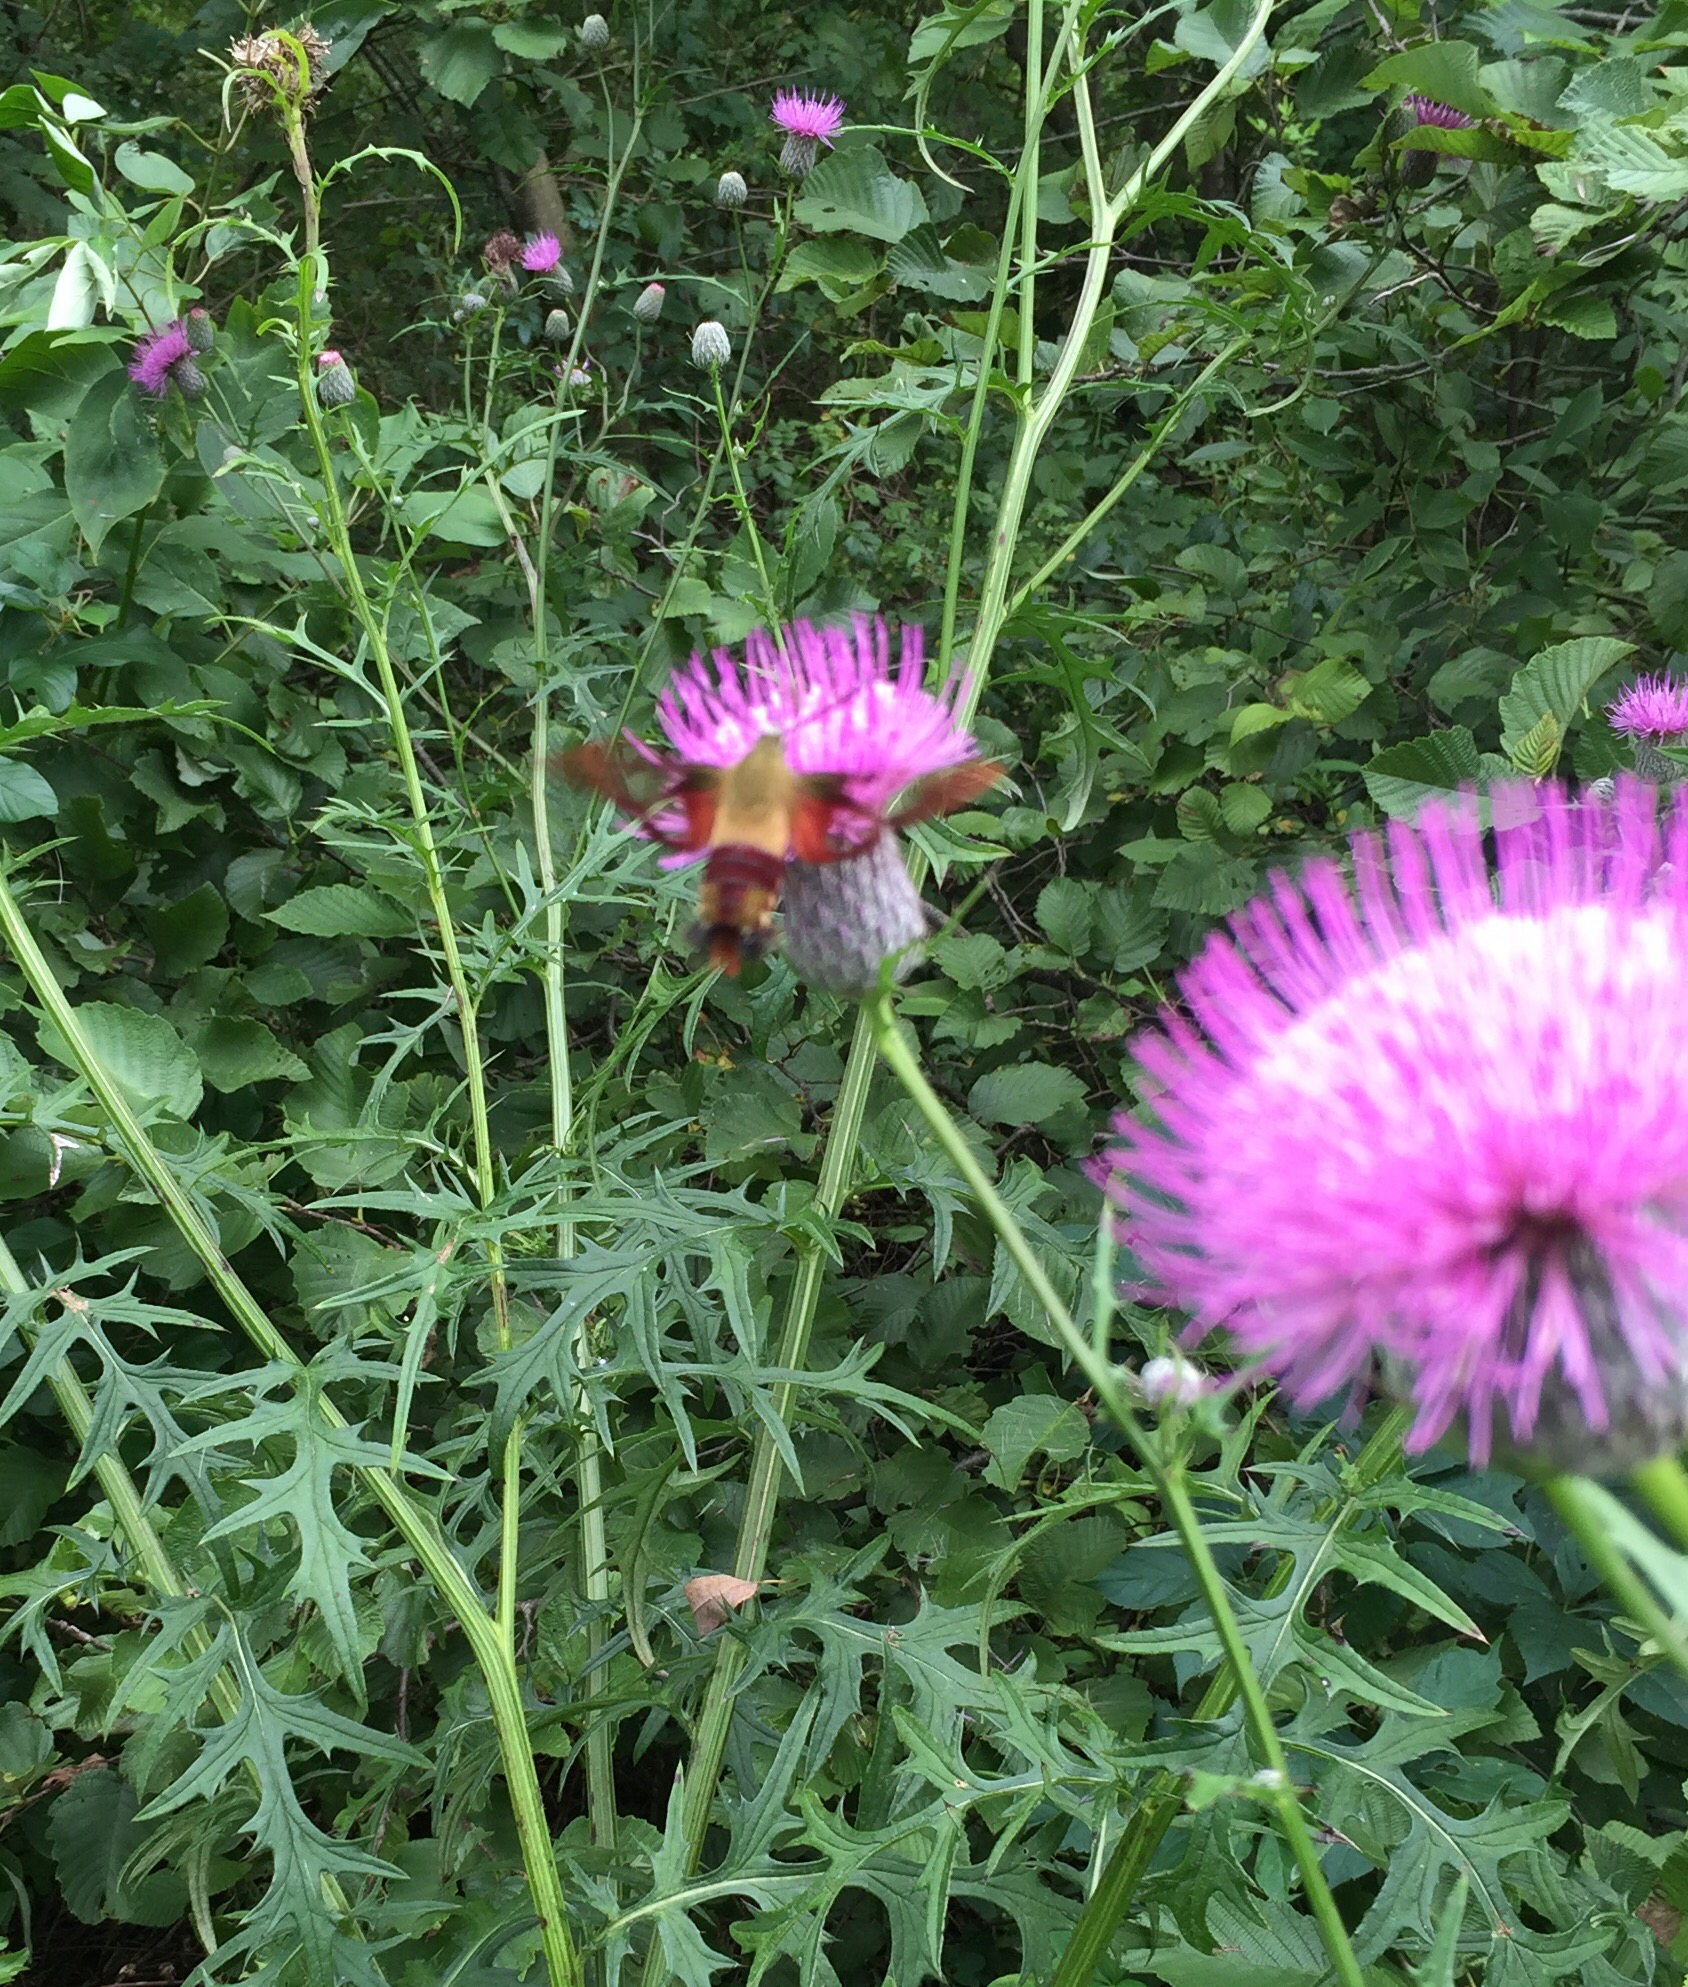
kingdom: Animalia
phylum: Arthropoda
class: Insecta
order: Lepidoptera
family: Sphingidae
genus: Hemaris
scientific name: Hemaris thysbe
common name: Common clear-wing
